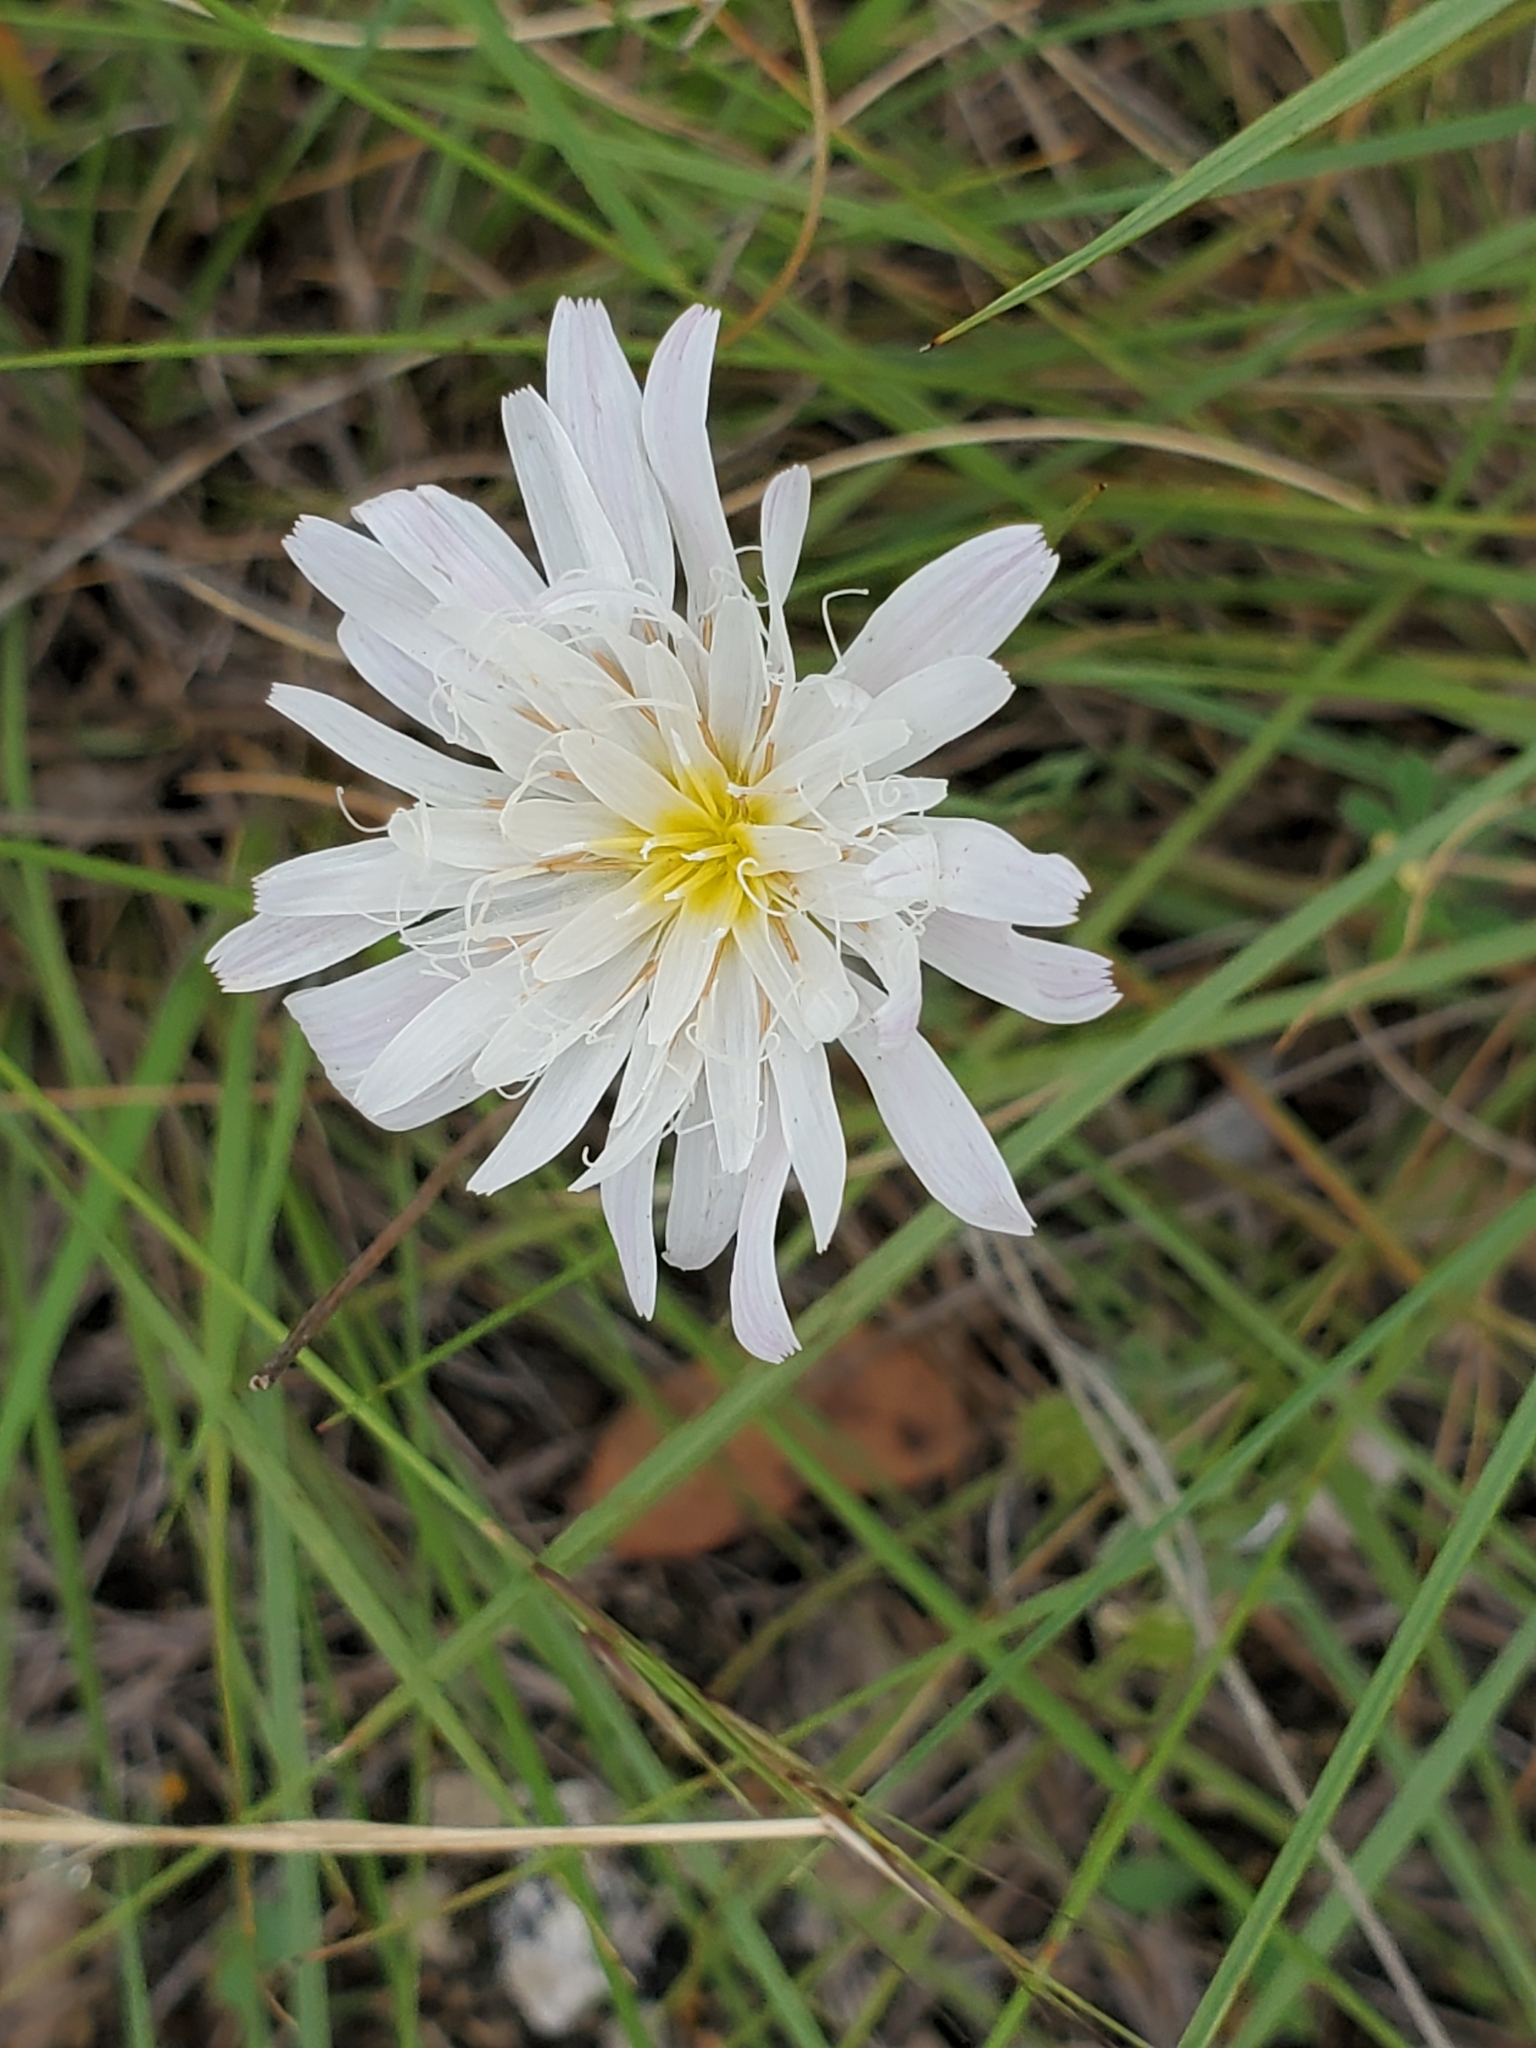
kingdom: Plantae
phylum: Tracheophyta
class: Magnoliopsida
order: Asterales
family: Asteraceae
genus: Pinaropappus
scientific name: Pinaropappus roseus
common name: Rock-lettuce
